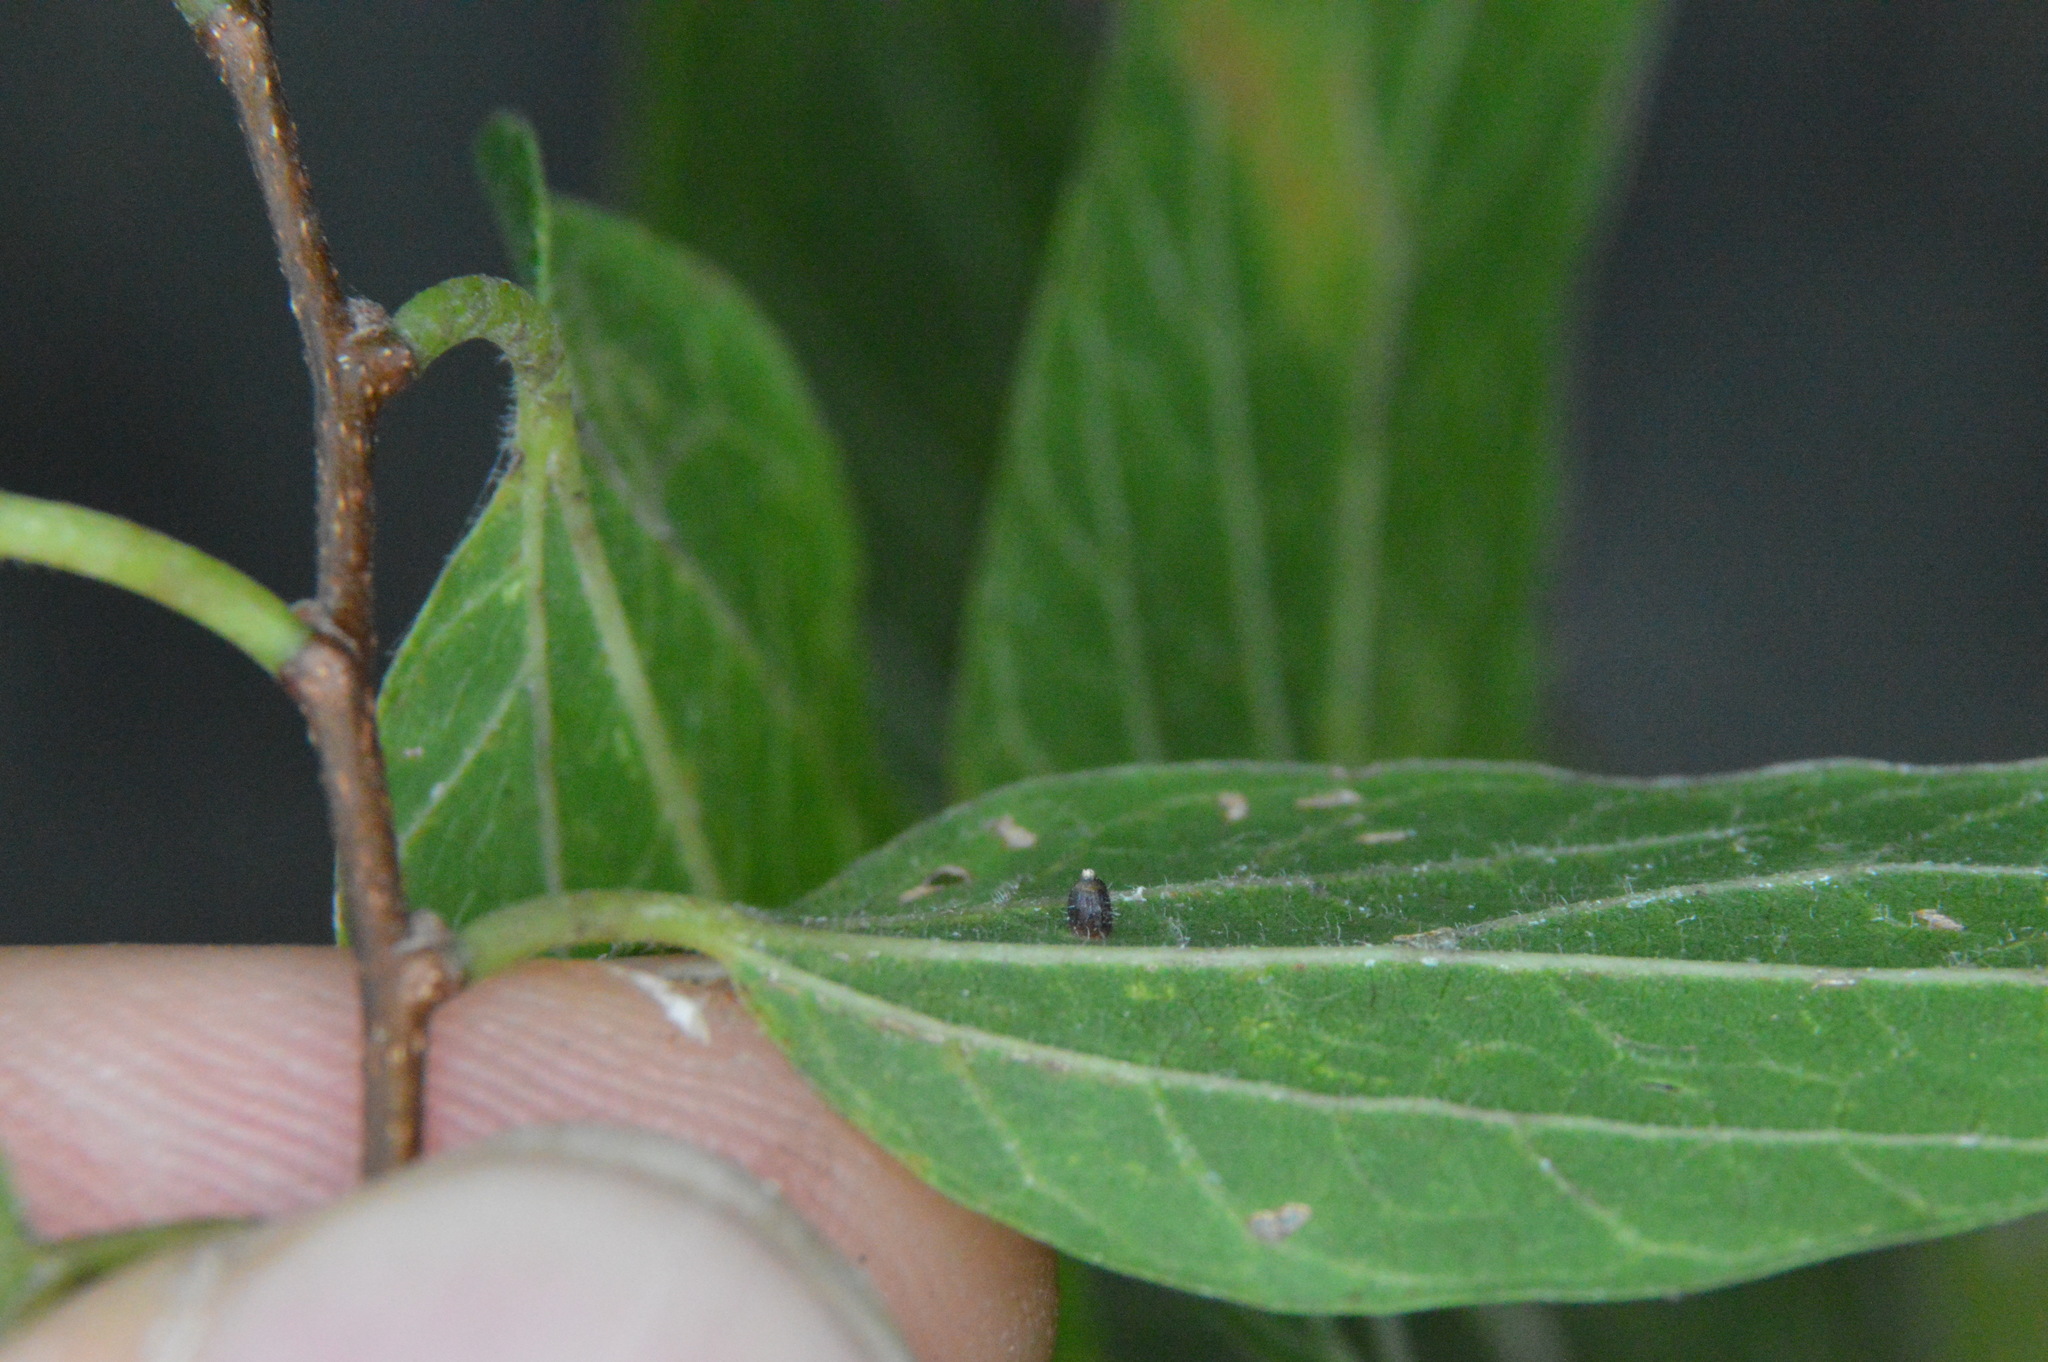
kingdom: Animalia
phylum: Arthropoda
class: Insecta
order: Diptera
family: Cecidomyiidae
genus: Celticecis
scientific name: Celticecis cupiformis
